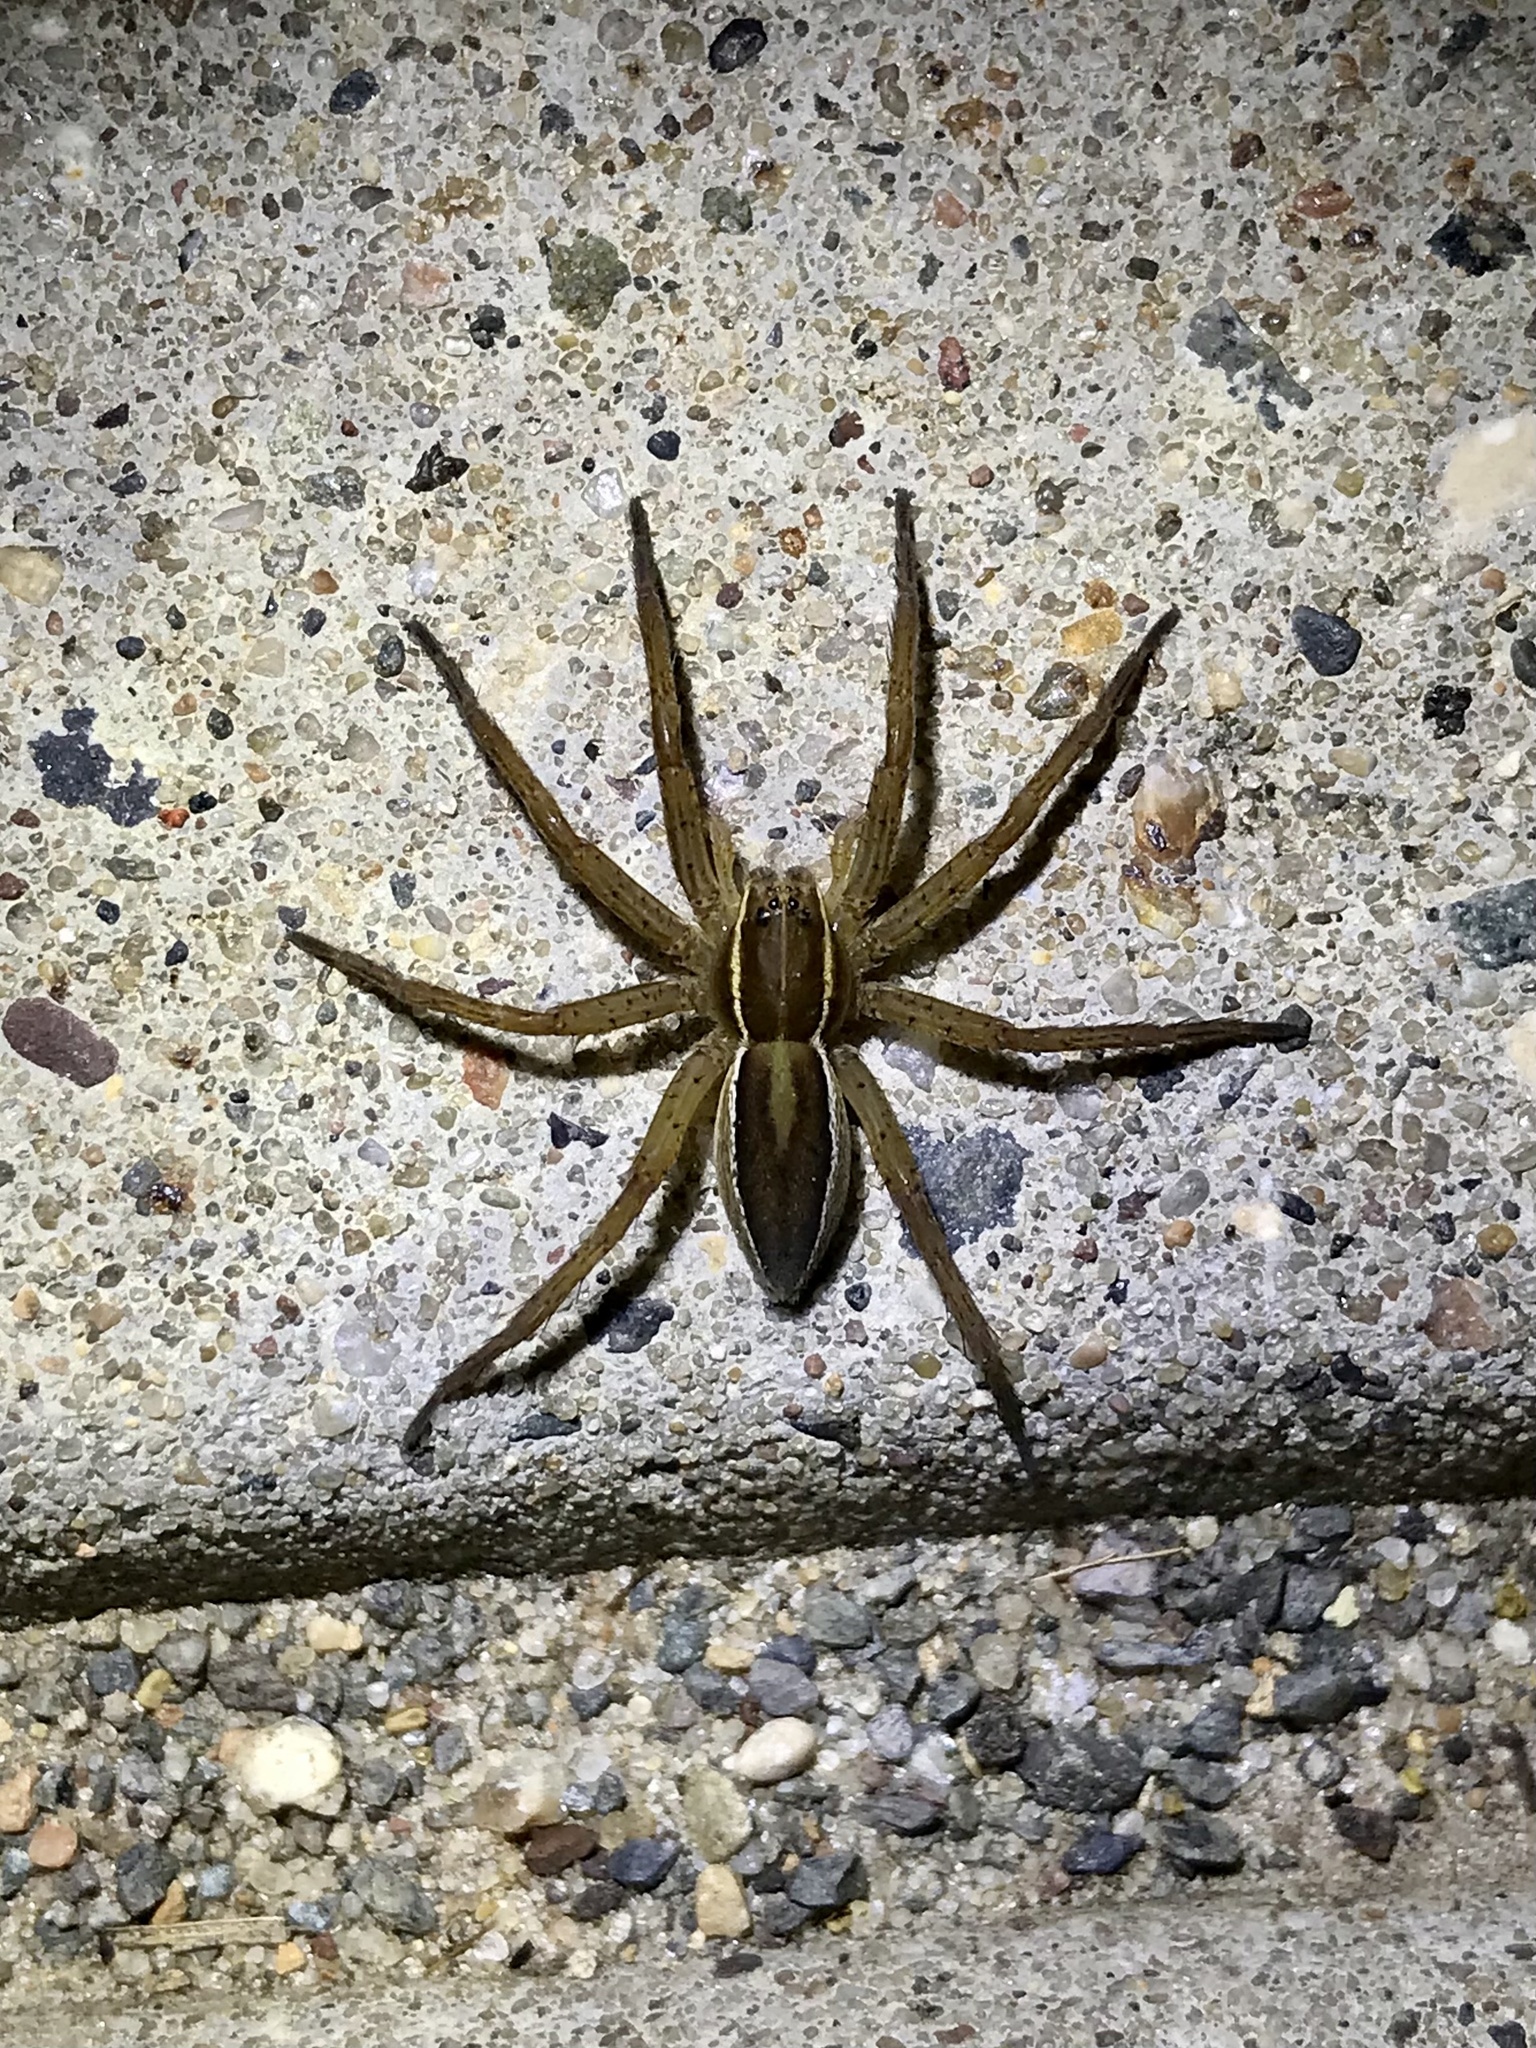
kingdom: Animalia
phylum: Arthropoda
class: Arachnida
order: Araneae
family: Pisauridae
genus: Dolomedes
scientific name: Dolomedes striatus
